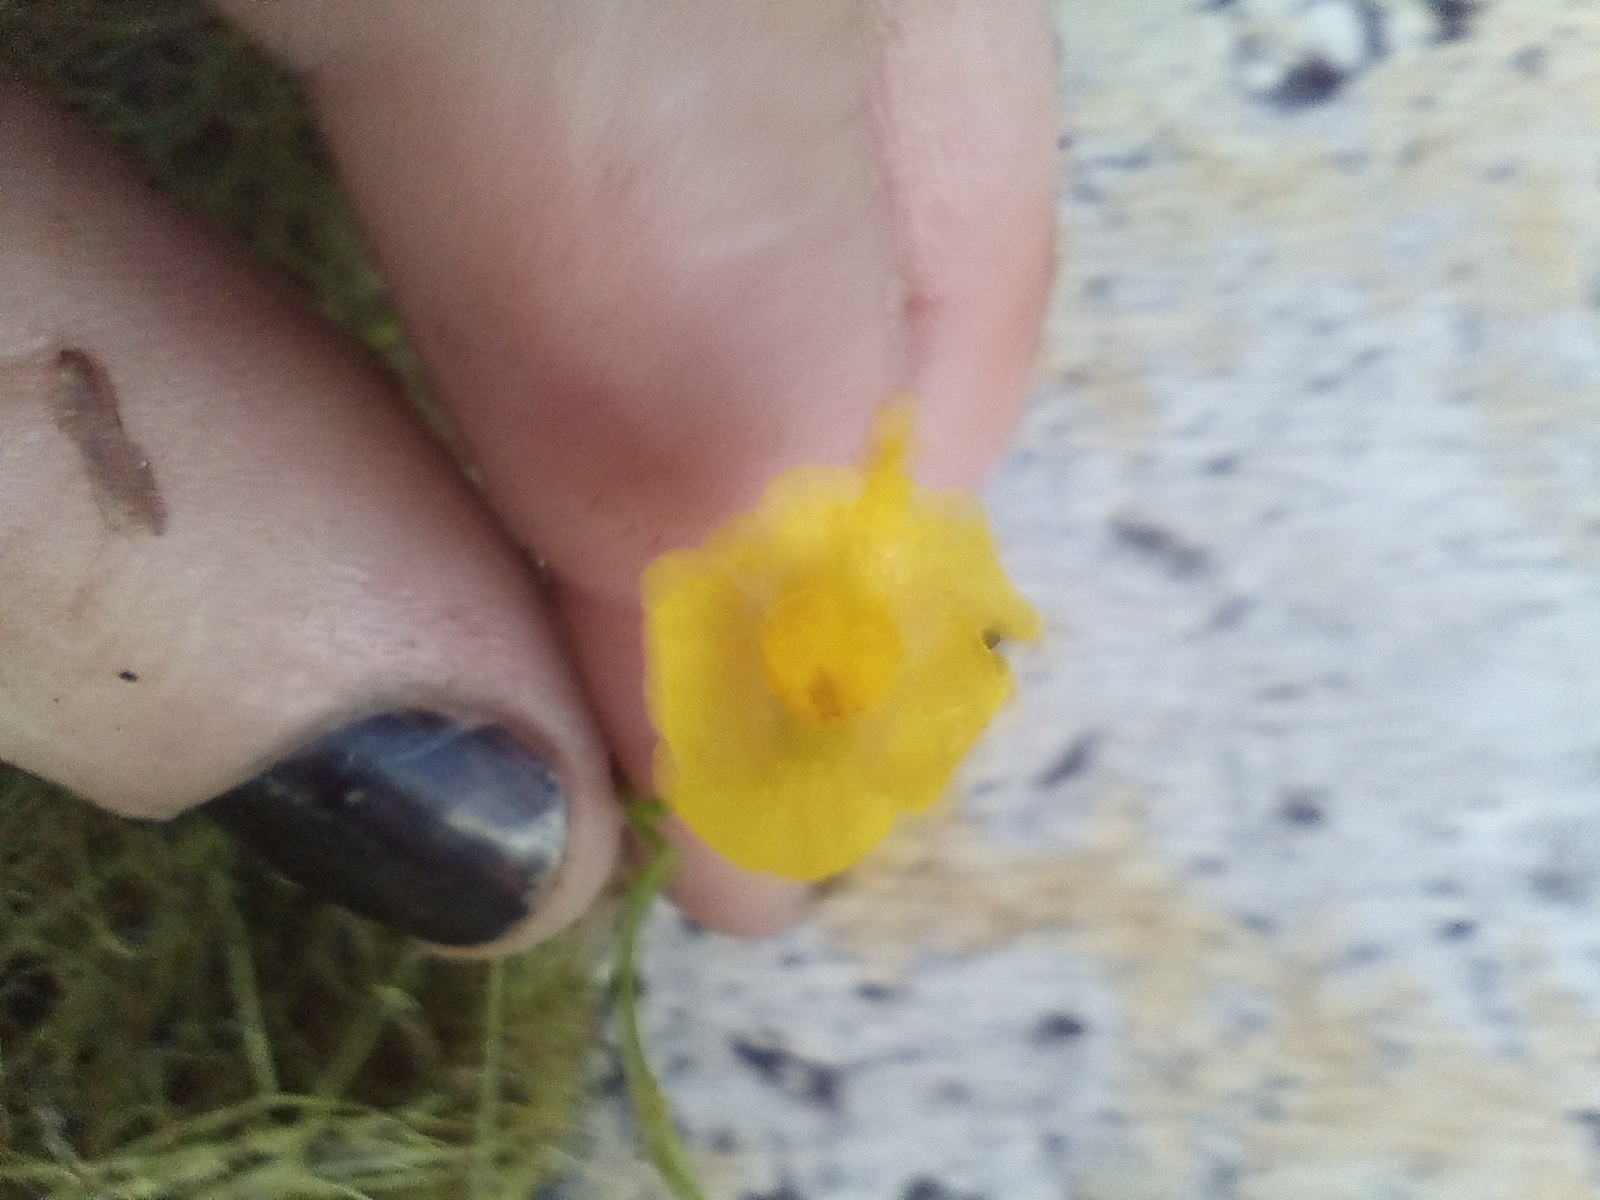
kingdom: Plantae
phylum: Tracheophyta
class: Magnoliopsida
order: Lamiales
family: Lentibulariaceae
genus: Utricularia
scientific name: Utricularia gibba
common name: Humped bladderwort
